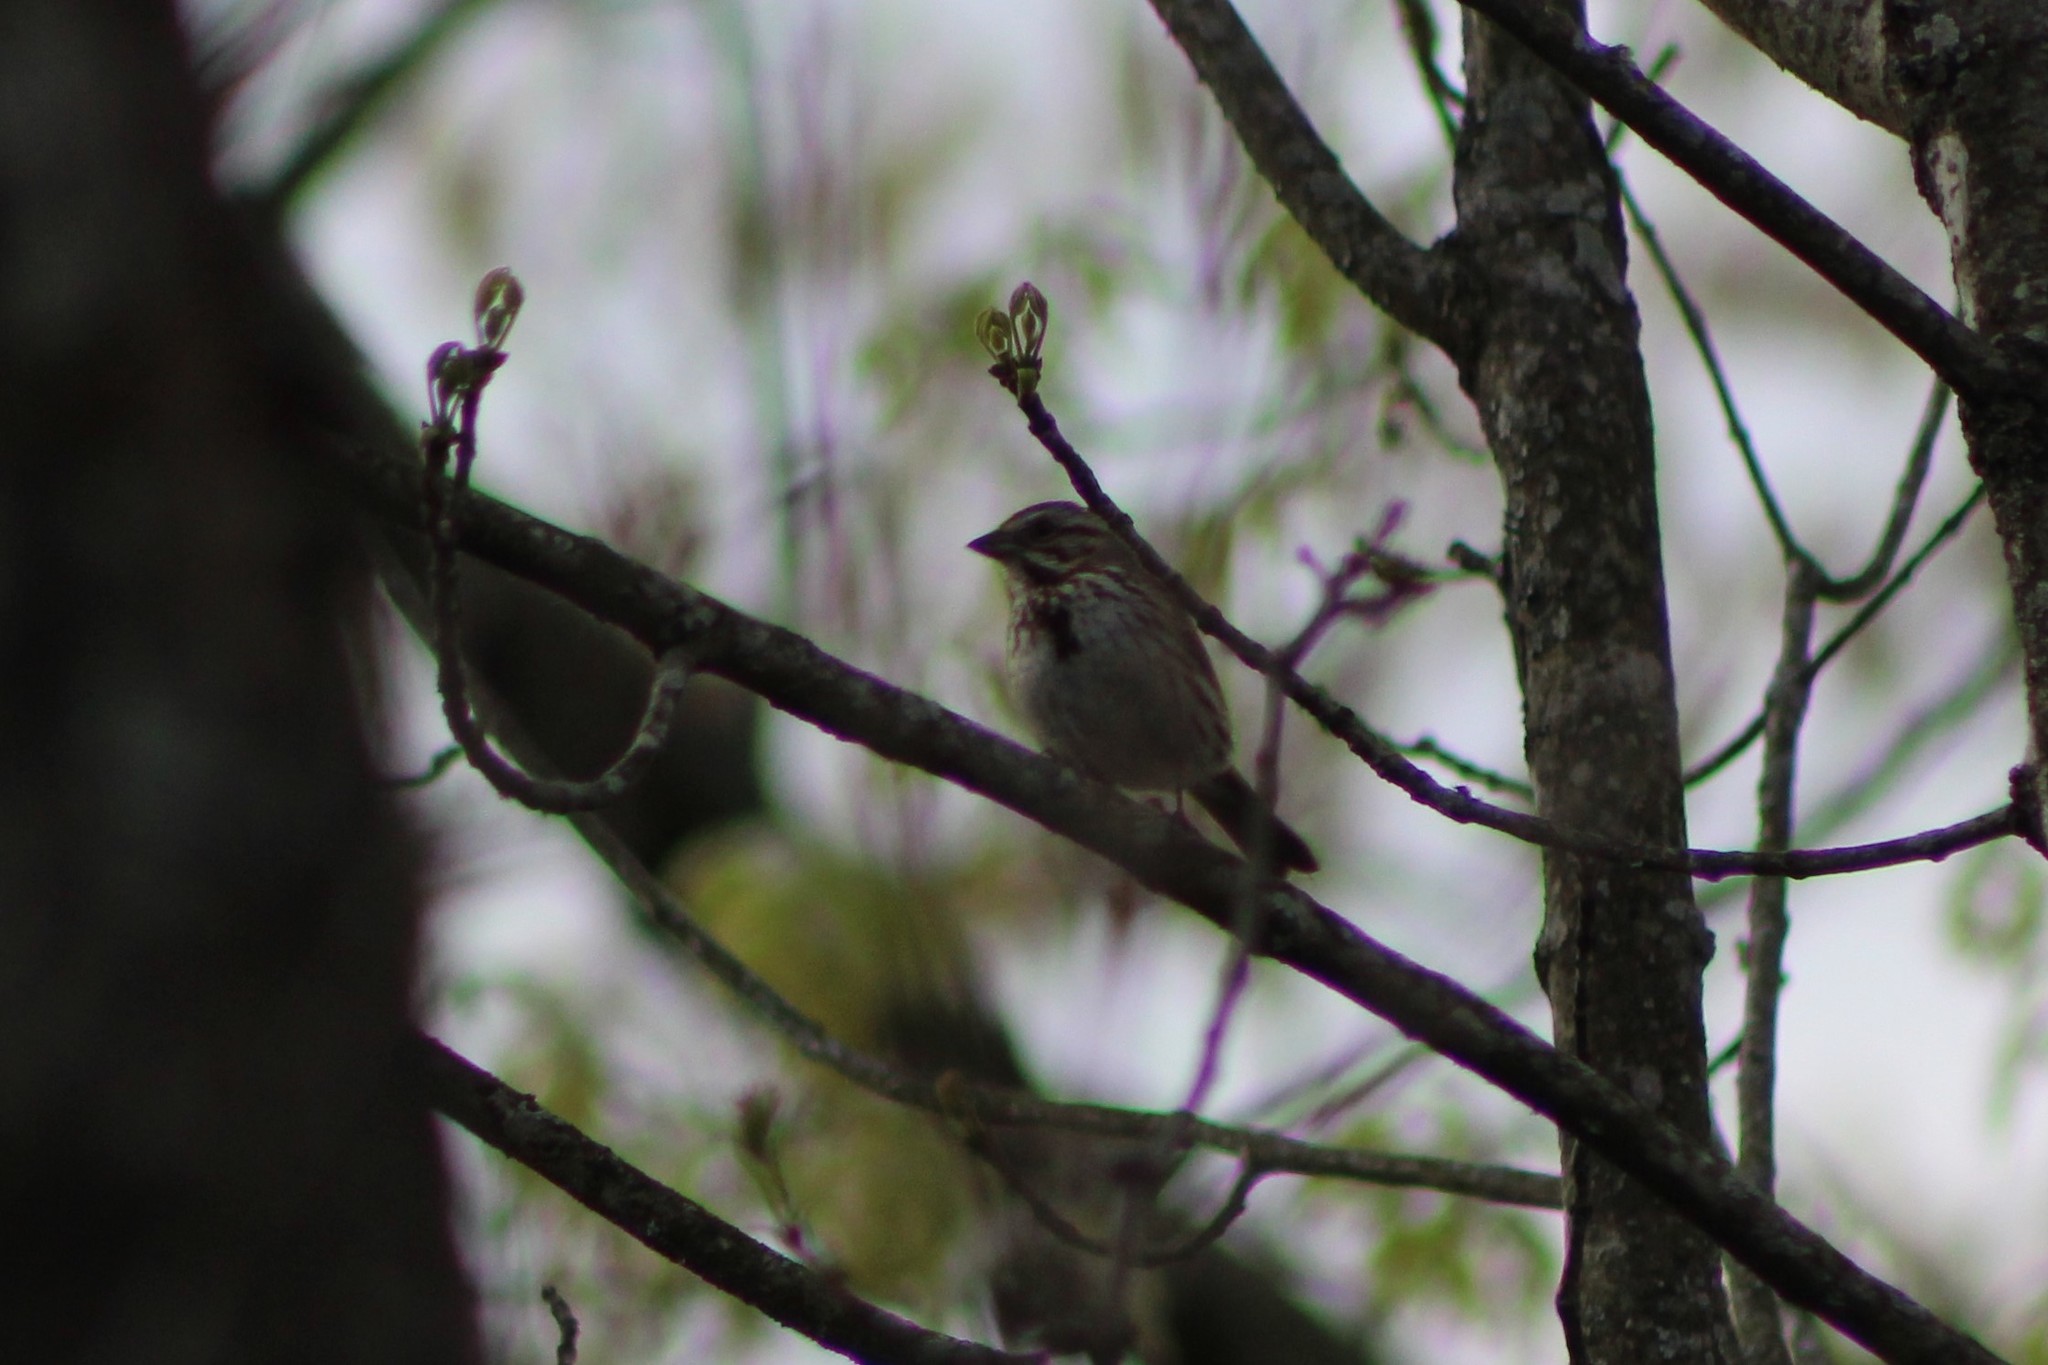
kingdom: Animalia
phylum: Chordata
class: Aves
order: Passeriformes
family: Passerellidae
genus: Melospiza
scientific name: Melospiza melodia
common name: Song sparrow
